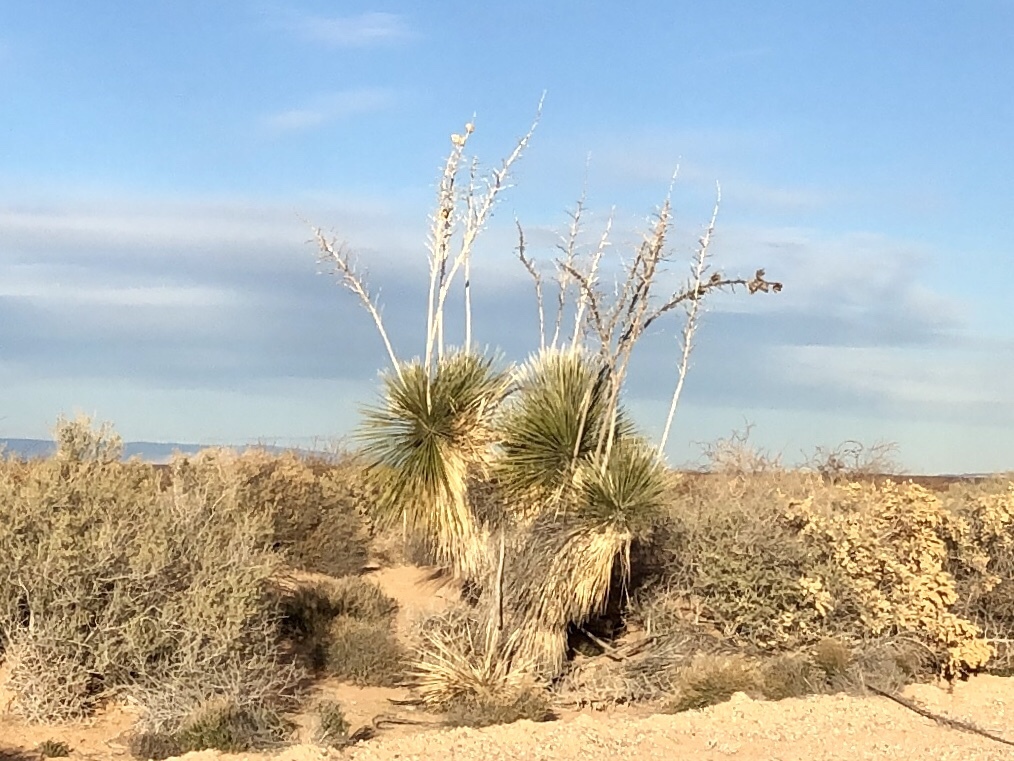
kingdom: Plantae
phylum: Tracheophyta
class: Liliopsida
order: Asparagales
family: Asparagaceae
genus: Yucca
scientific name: Yucca elata
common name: Palmella
